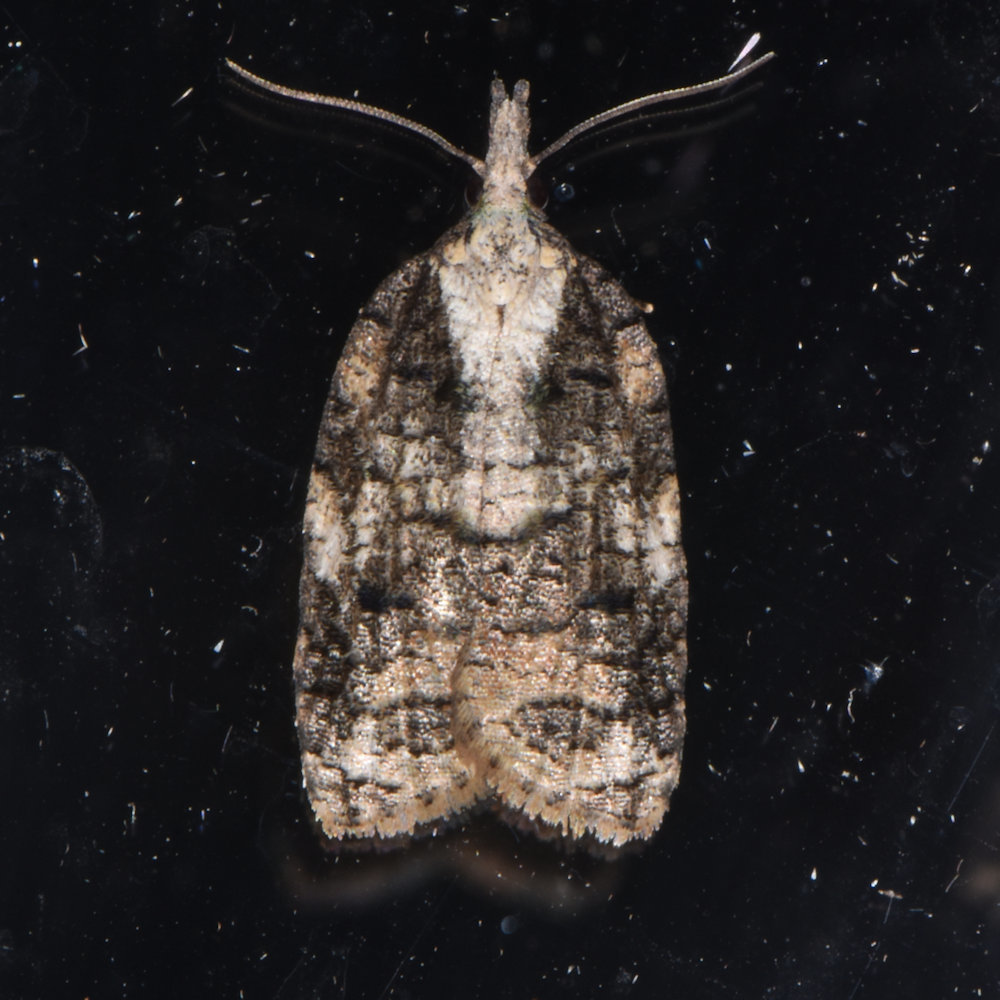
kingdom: Animalia
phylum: Arthropoda
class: Insecta
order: Lepidoptera
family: Tortricidae
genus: Platynota
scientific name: Platynota exasperatana
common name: Exasperating platynota moth
